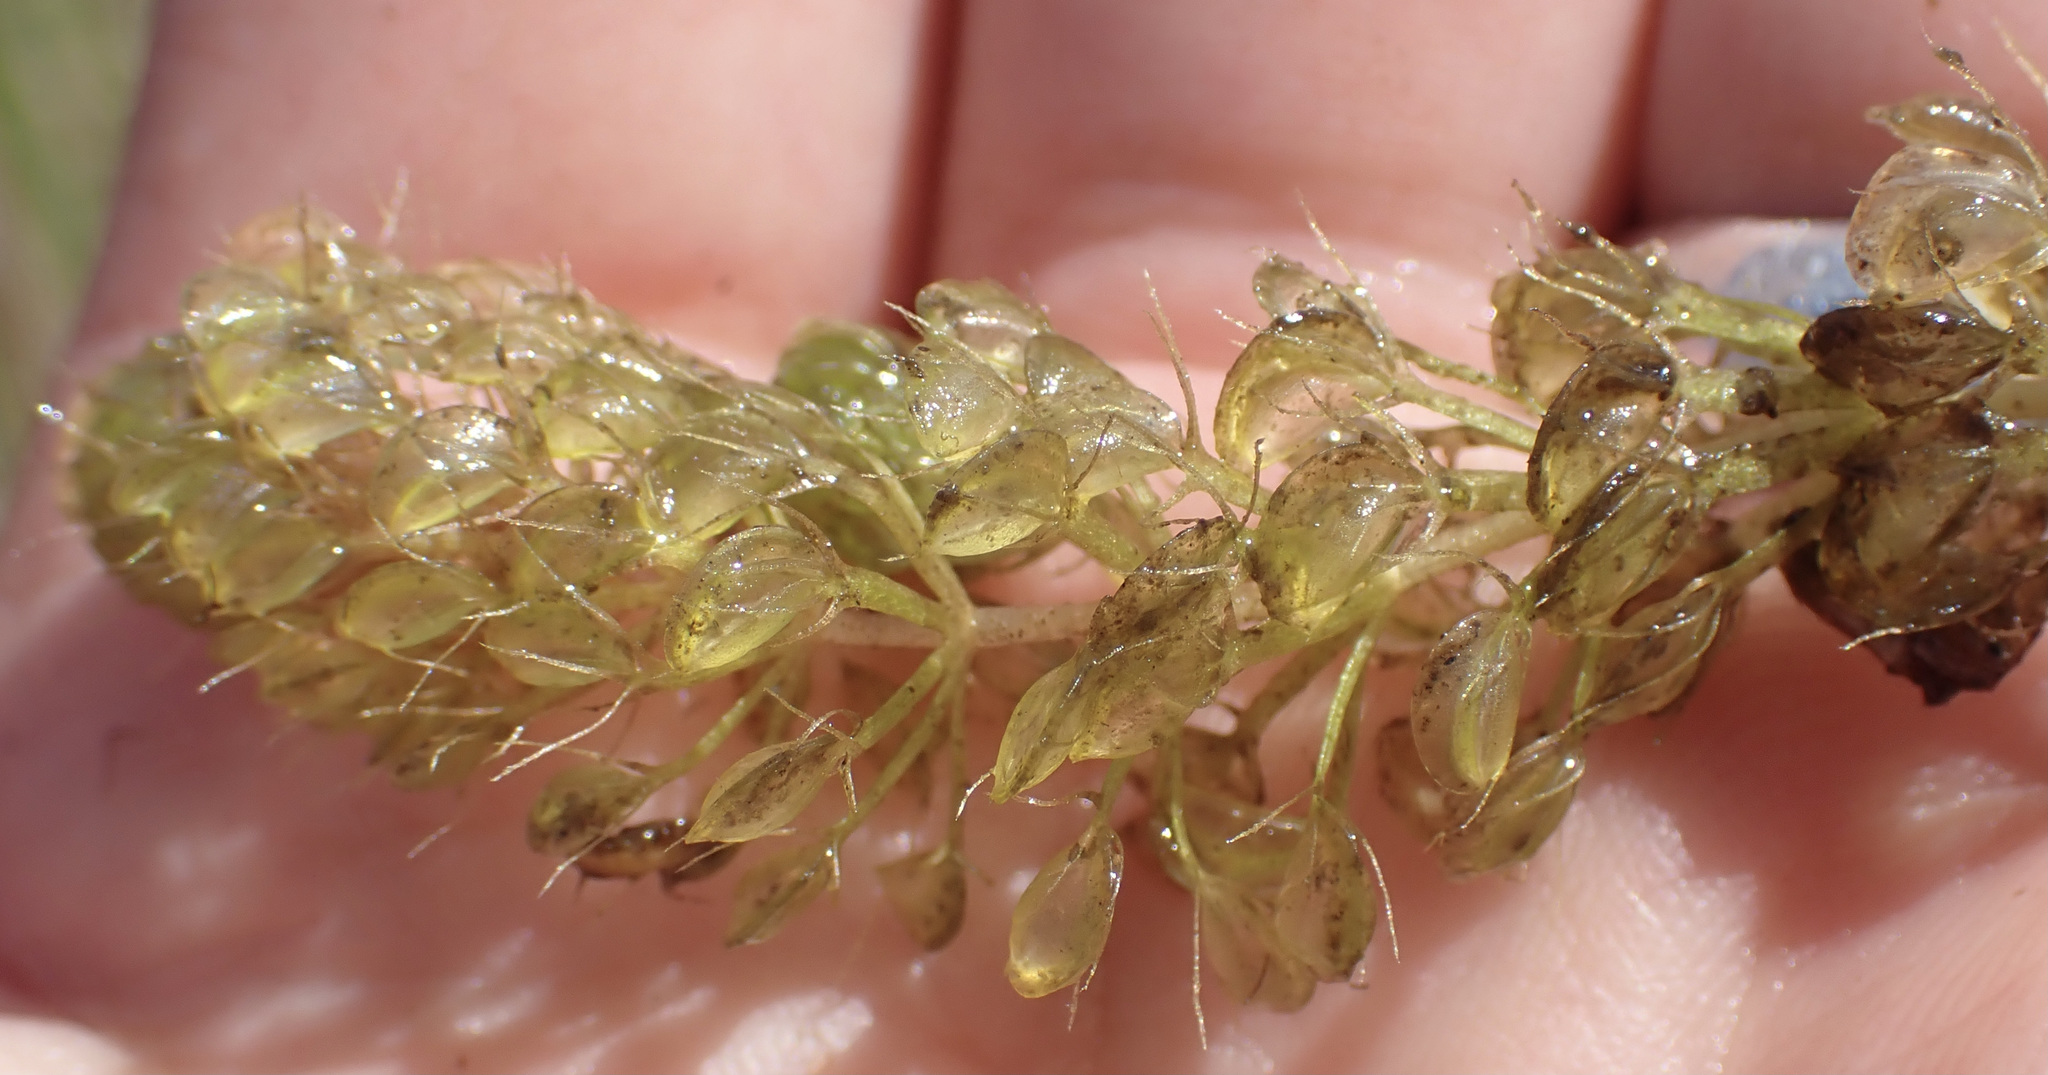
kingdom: Plantae
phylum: Tracheophyta
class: Magnoliopsida
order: Caryophyllales
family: Droseraceae
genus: Aldrovanda
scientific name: Aldrovanda vesiculosa
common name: Waterwheel plant
